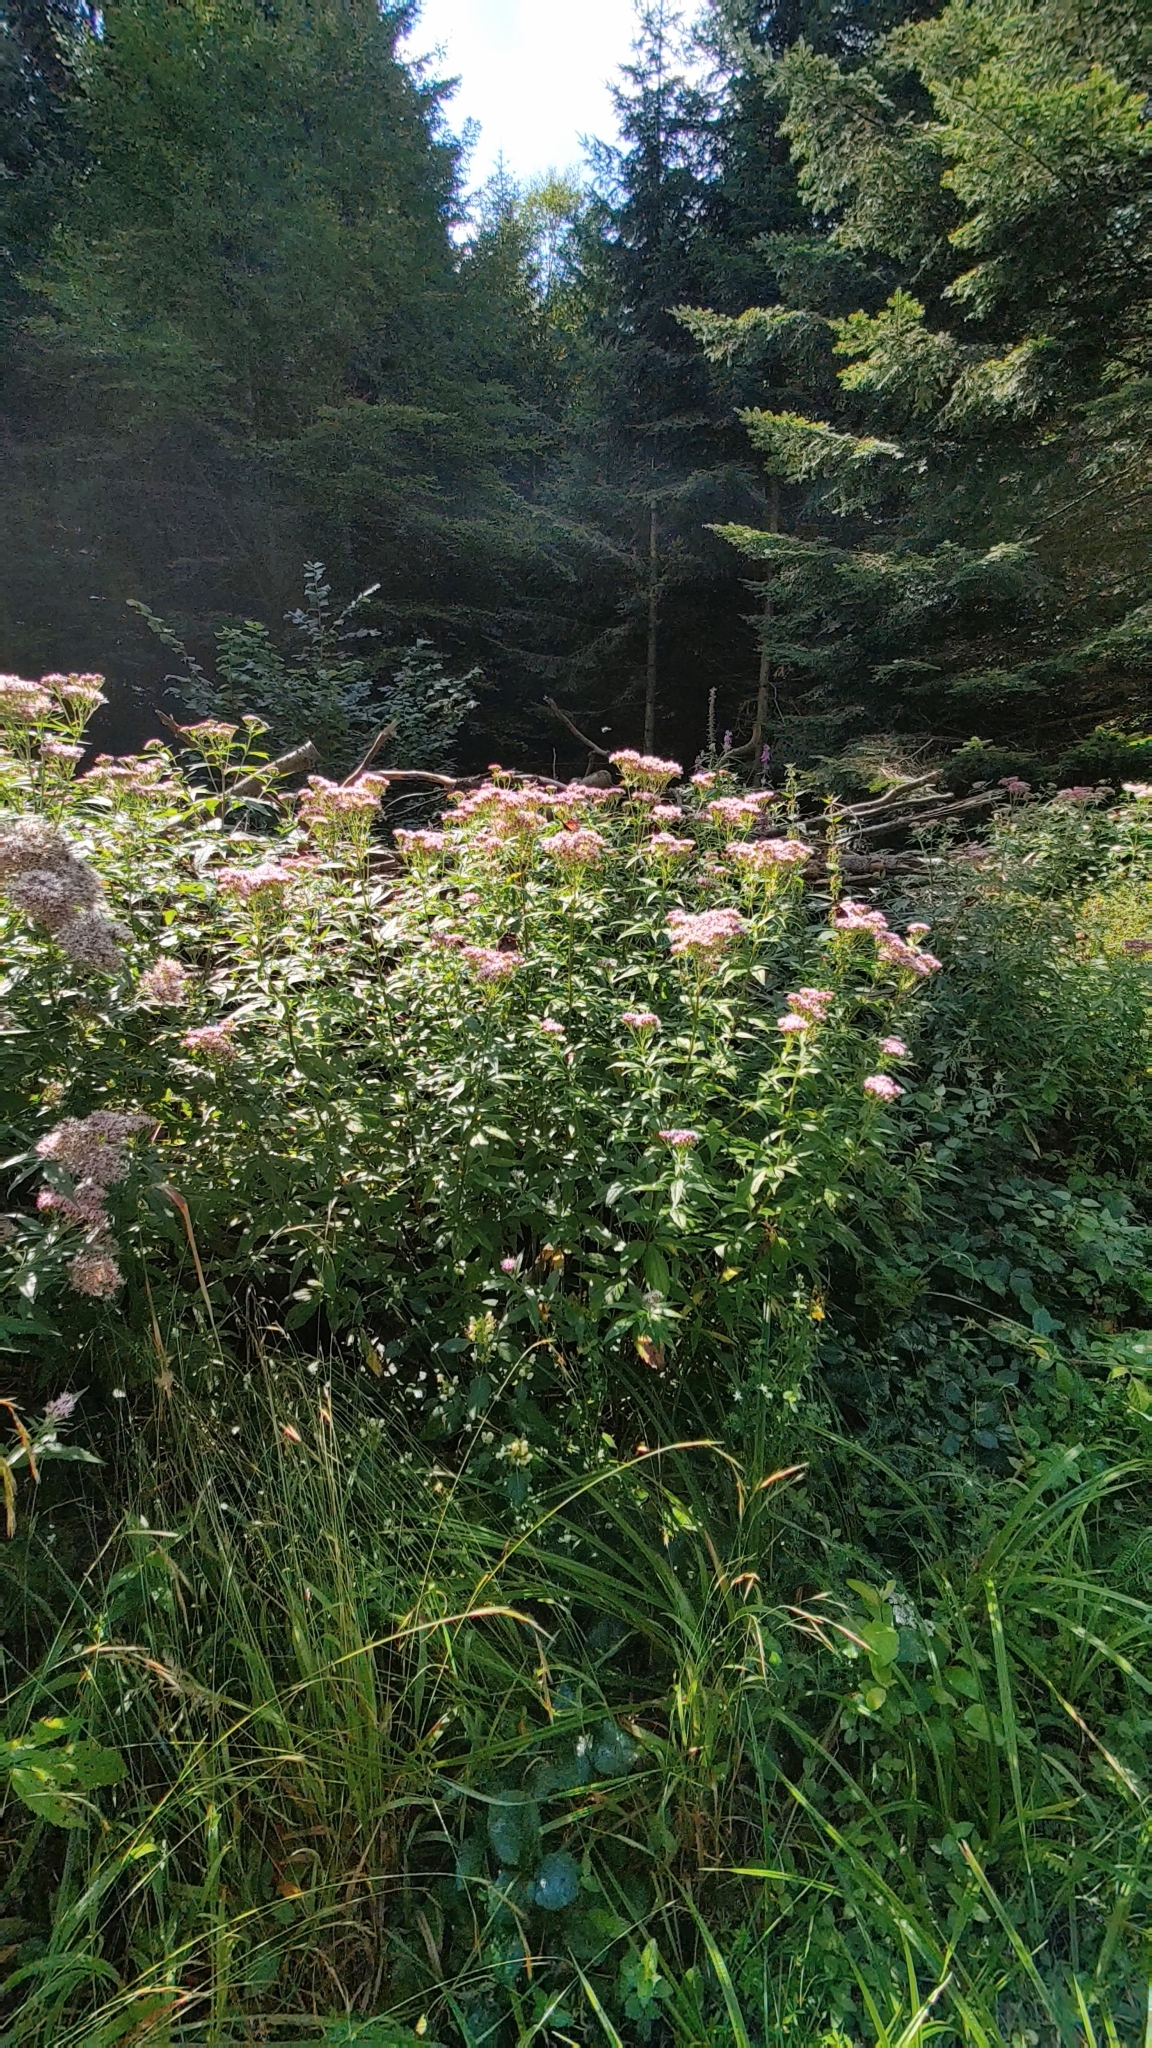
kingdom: Plantae
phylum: Tracheophyta
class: Magnoliopsida
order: Asterales
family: Asteraceae
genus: Eupatorium
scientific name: Eupatorium cannabinum
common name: Hemp-agrimony
